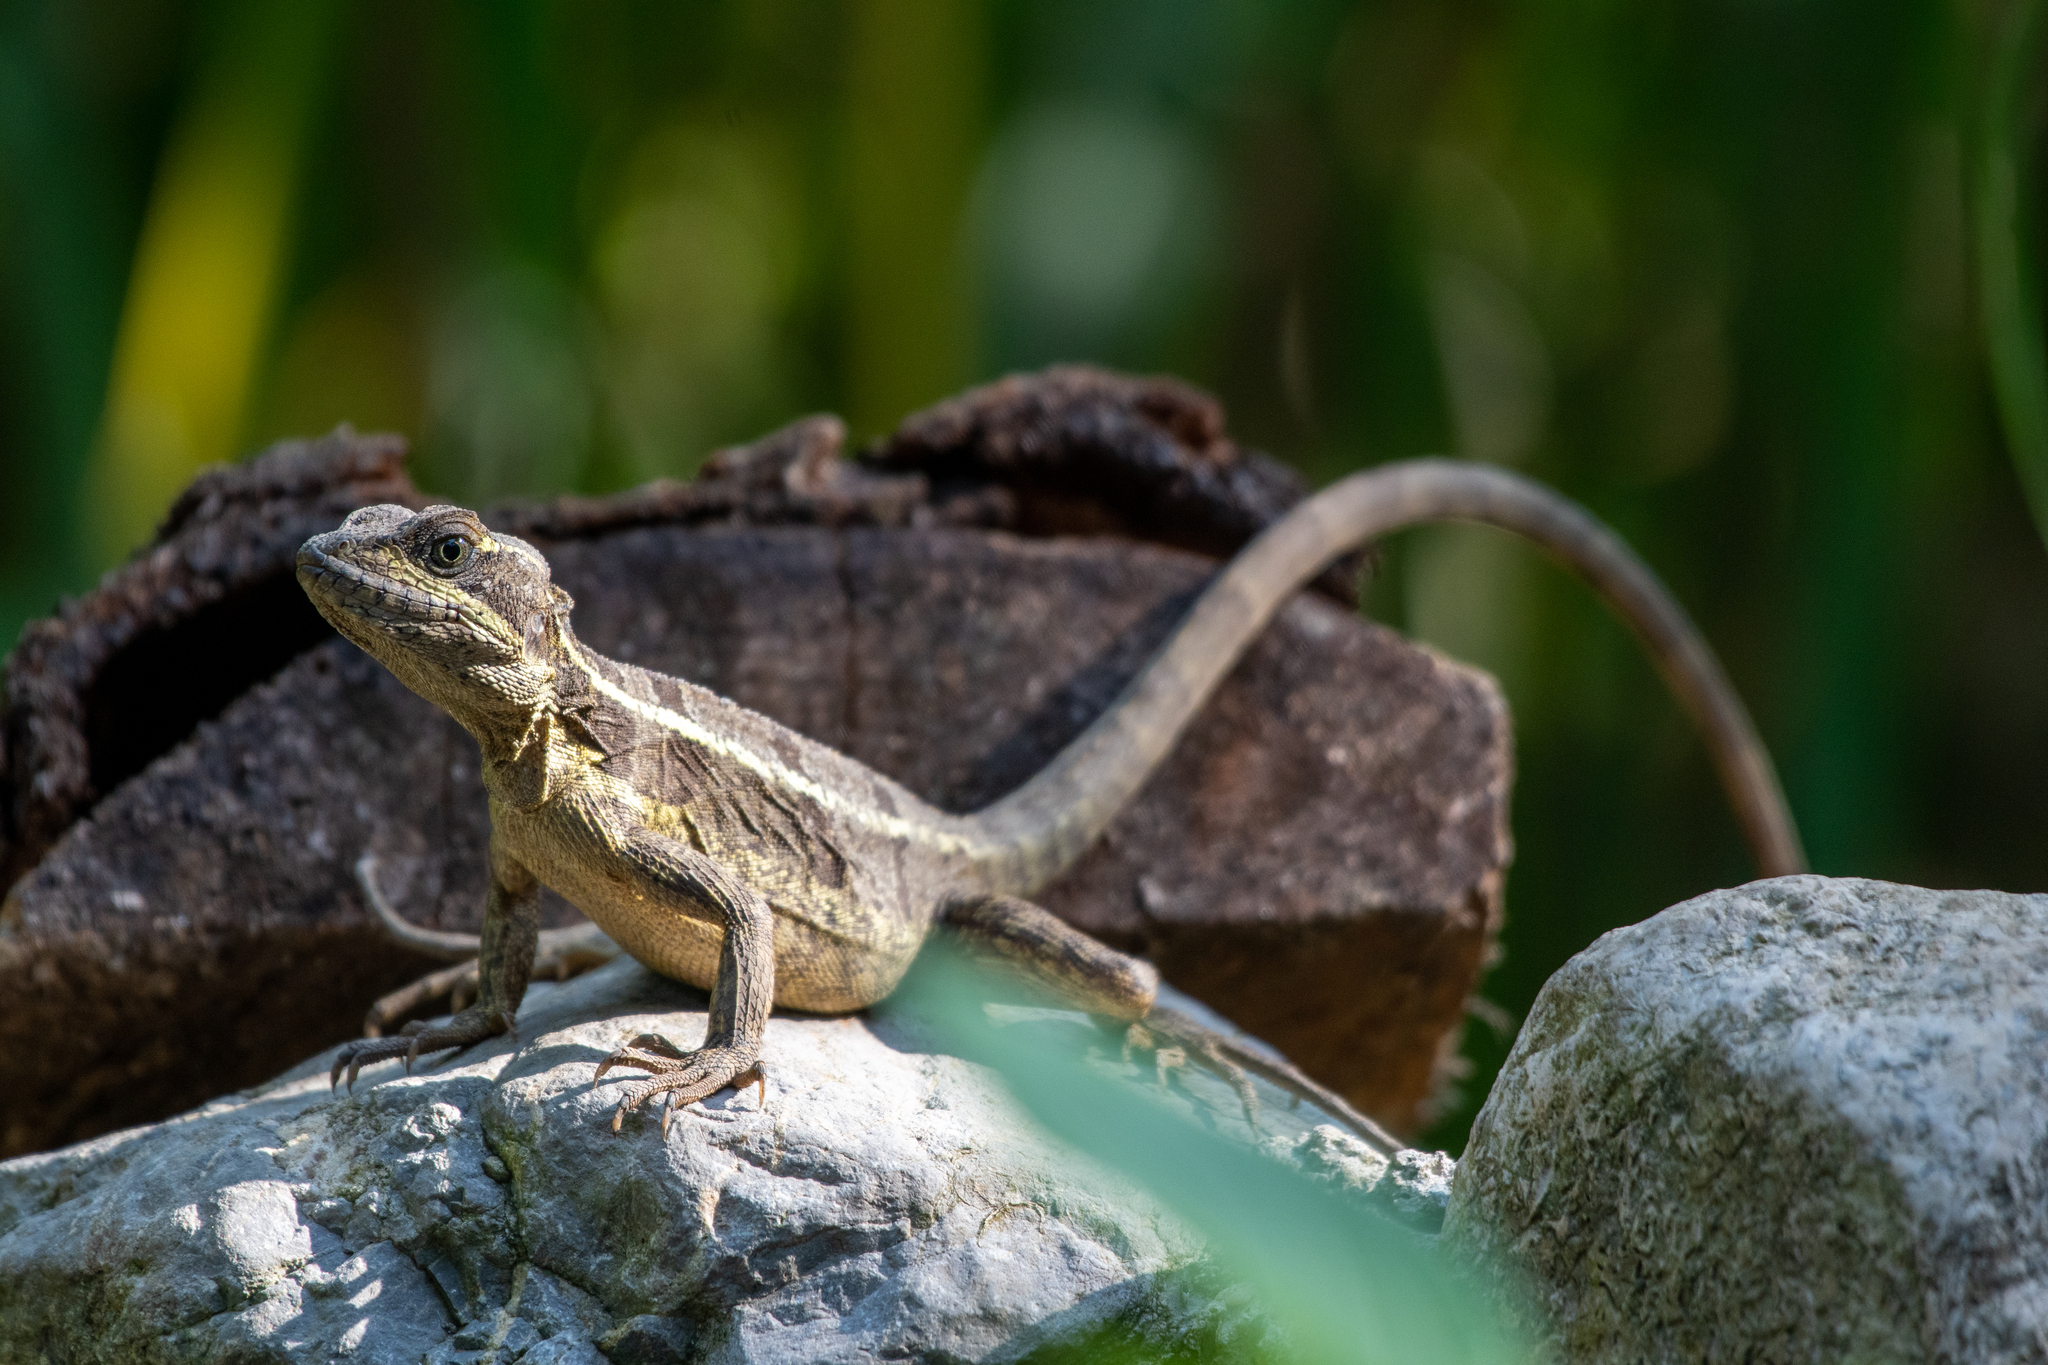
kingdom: Animalia
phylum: Chordata
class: Squamata
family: Corytophanidae
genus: Basiliscus
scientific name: Basiliscus vittatus
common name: Brown basilisk
